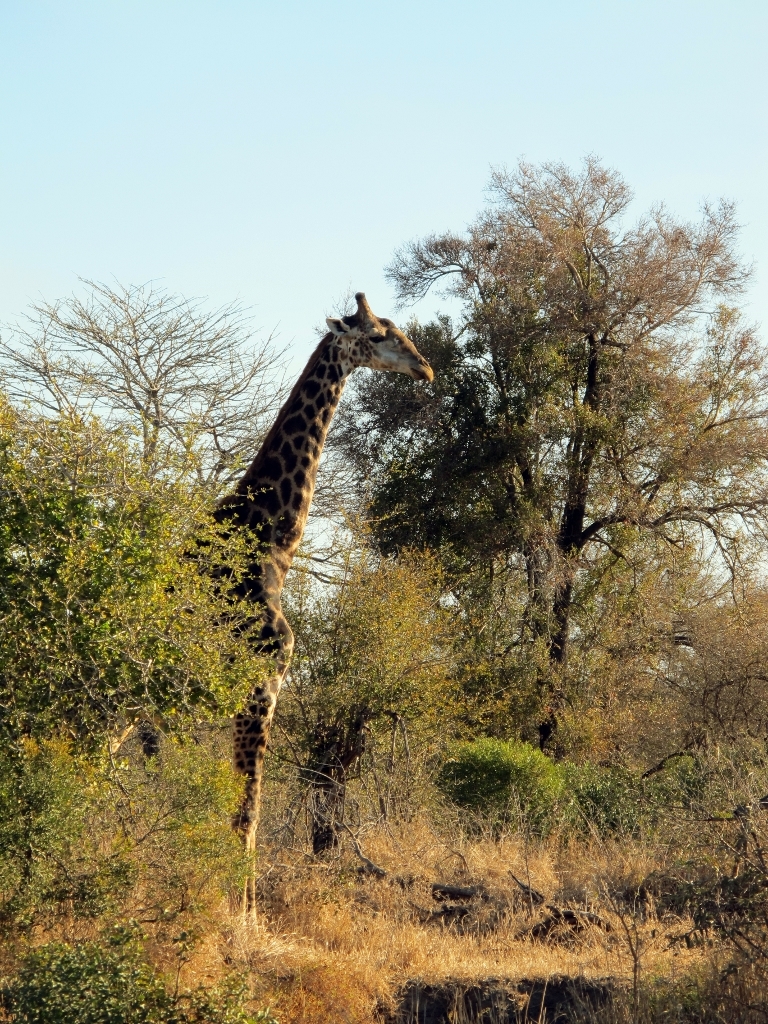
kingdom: Animalia
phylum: Chordata
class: Mammalia
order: Artiodactyla
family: Giraffidae
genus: Giraffa
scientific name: Giraffa giraffa
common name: Southern giraffe
